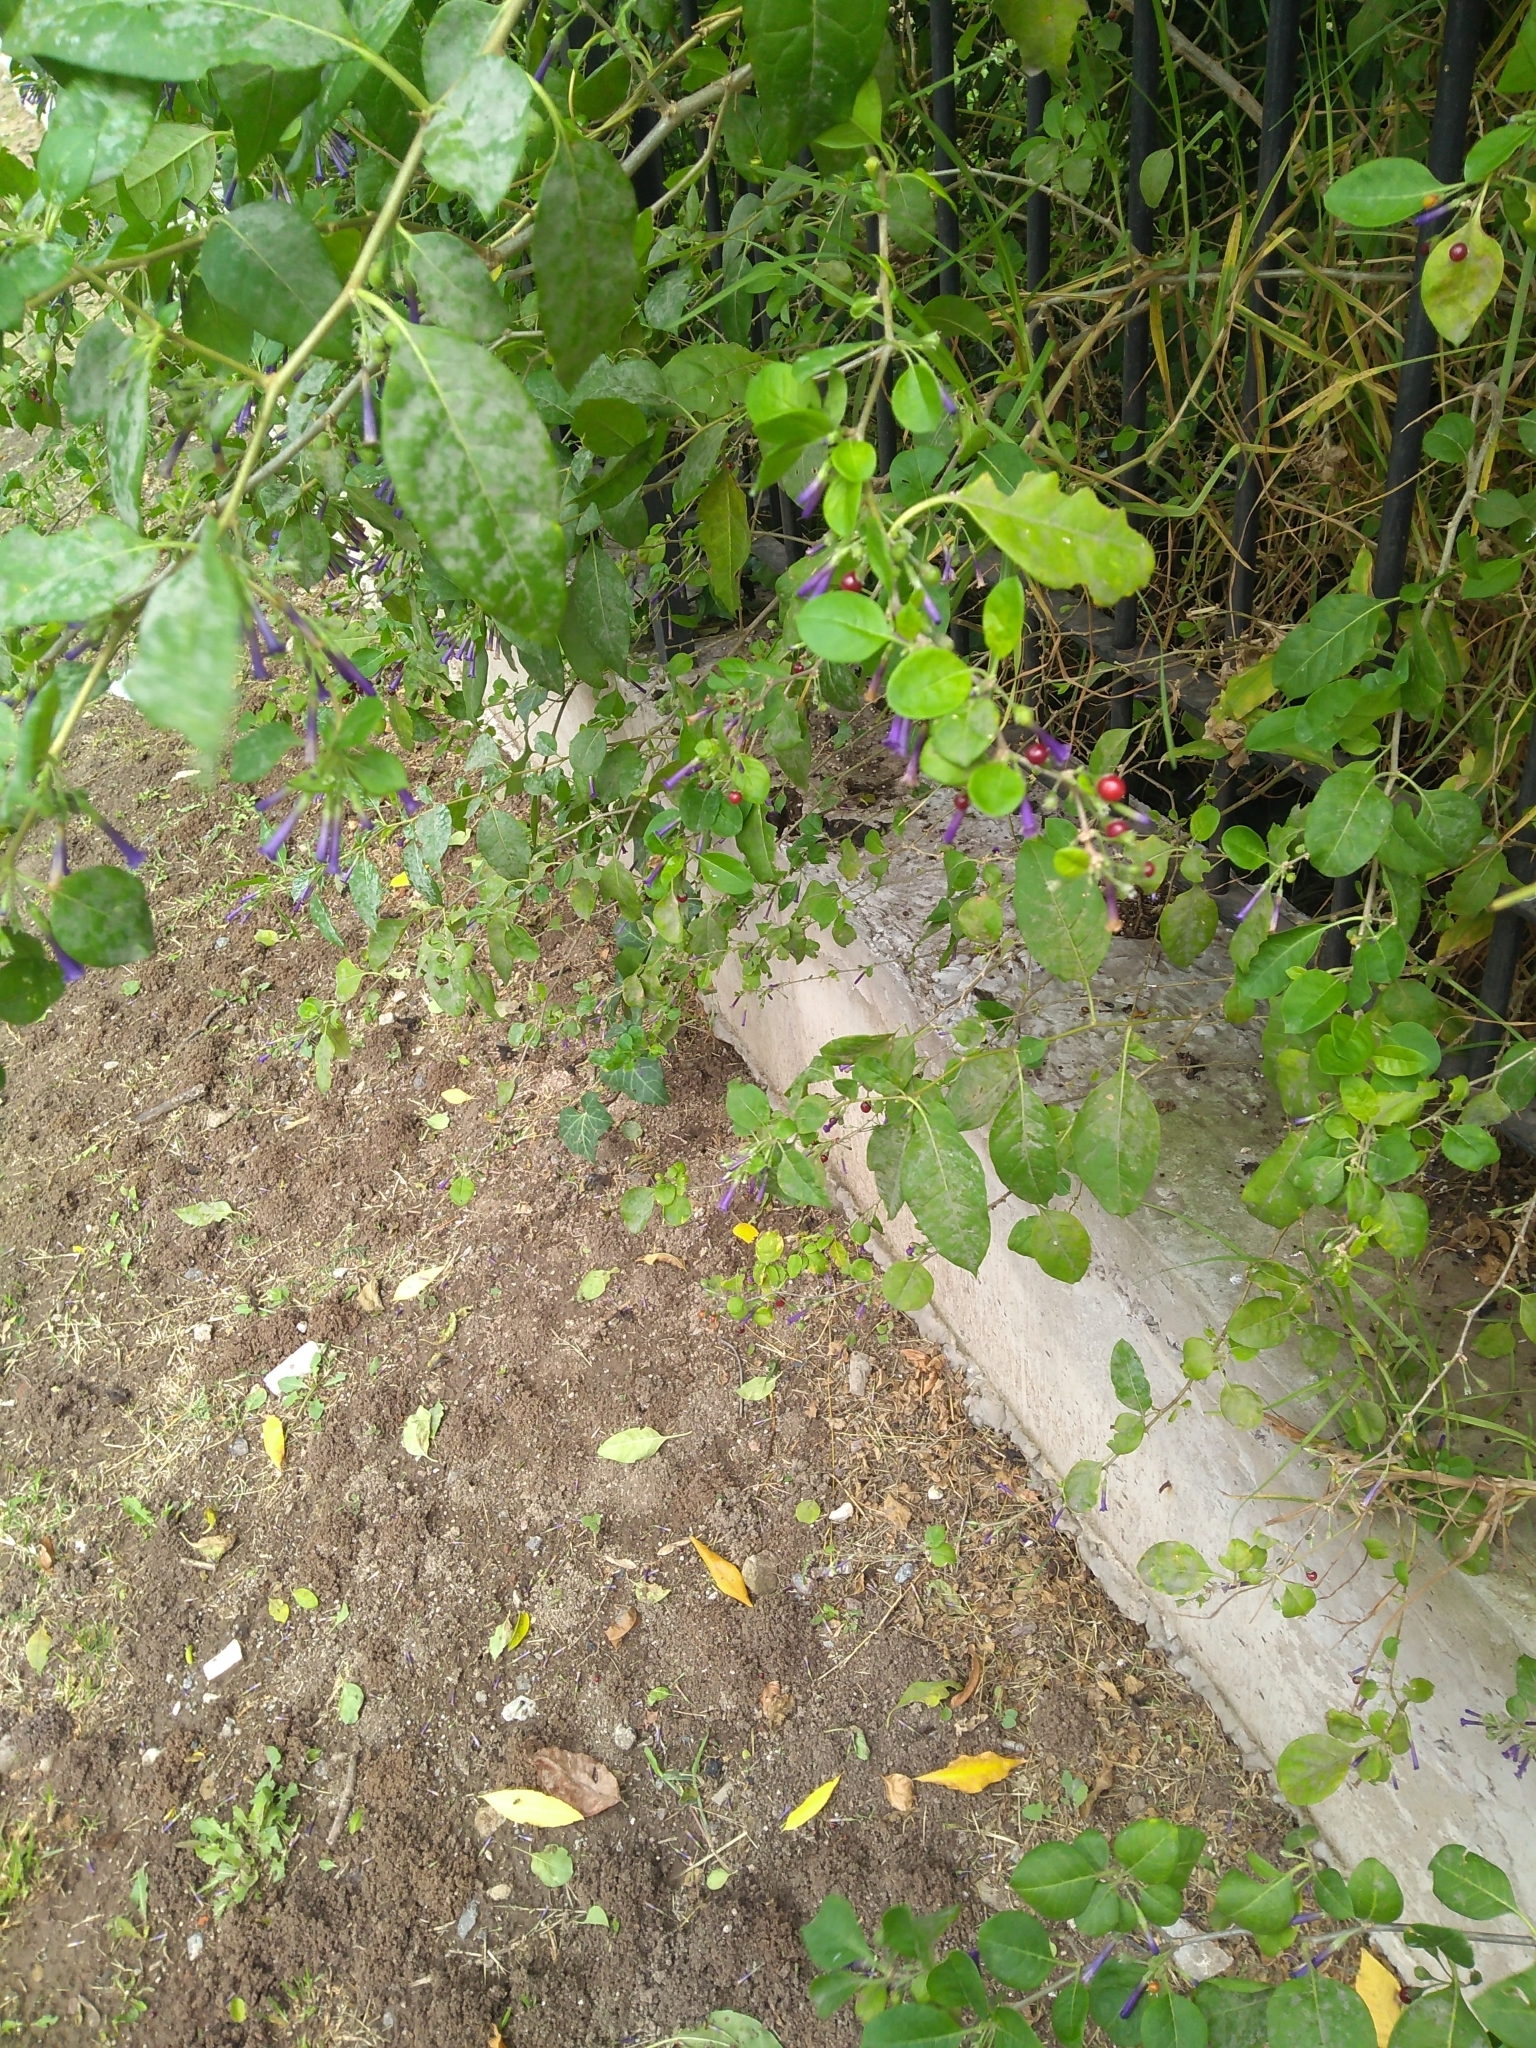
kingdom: Plantae
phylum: Tracheophyta
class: Magnoliopsida
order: Solanales
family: Solanaceae
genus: Lycium
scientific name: Lycium cestroides
